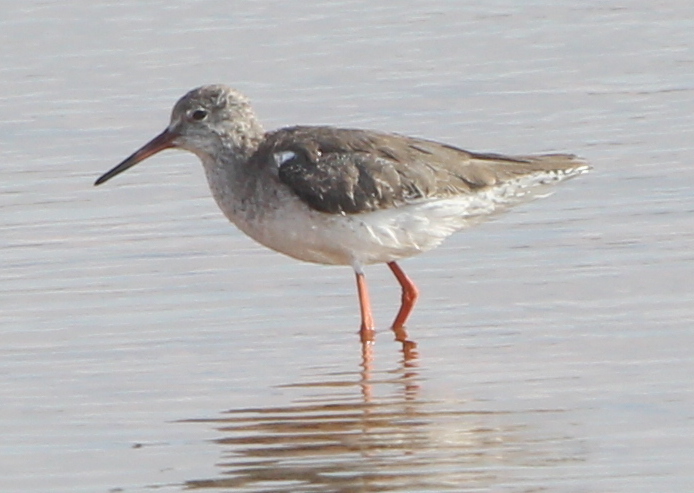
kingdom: Animalia
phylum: Chordata
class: Aves
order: Charadriiformes
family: Scolopacidae
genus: Tringa
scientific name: Tringa totanus
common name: Common redshank
